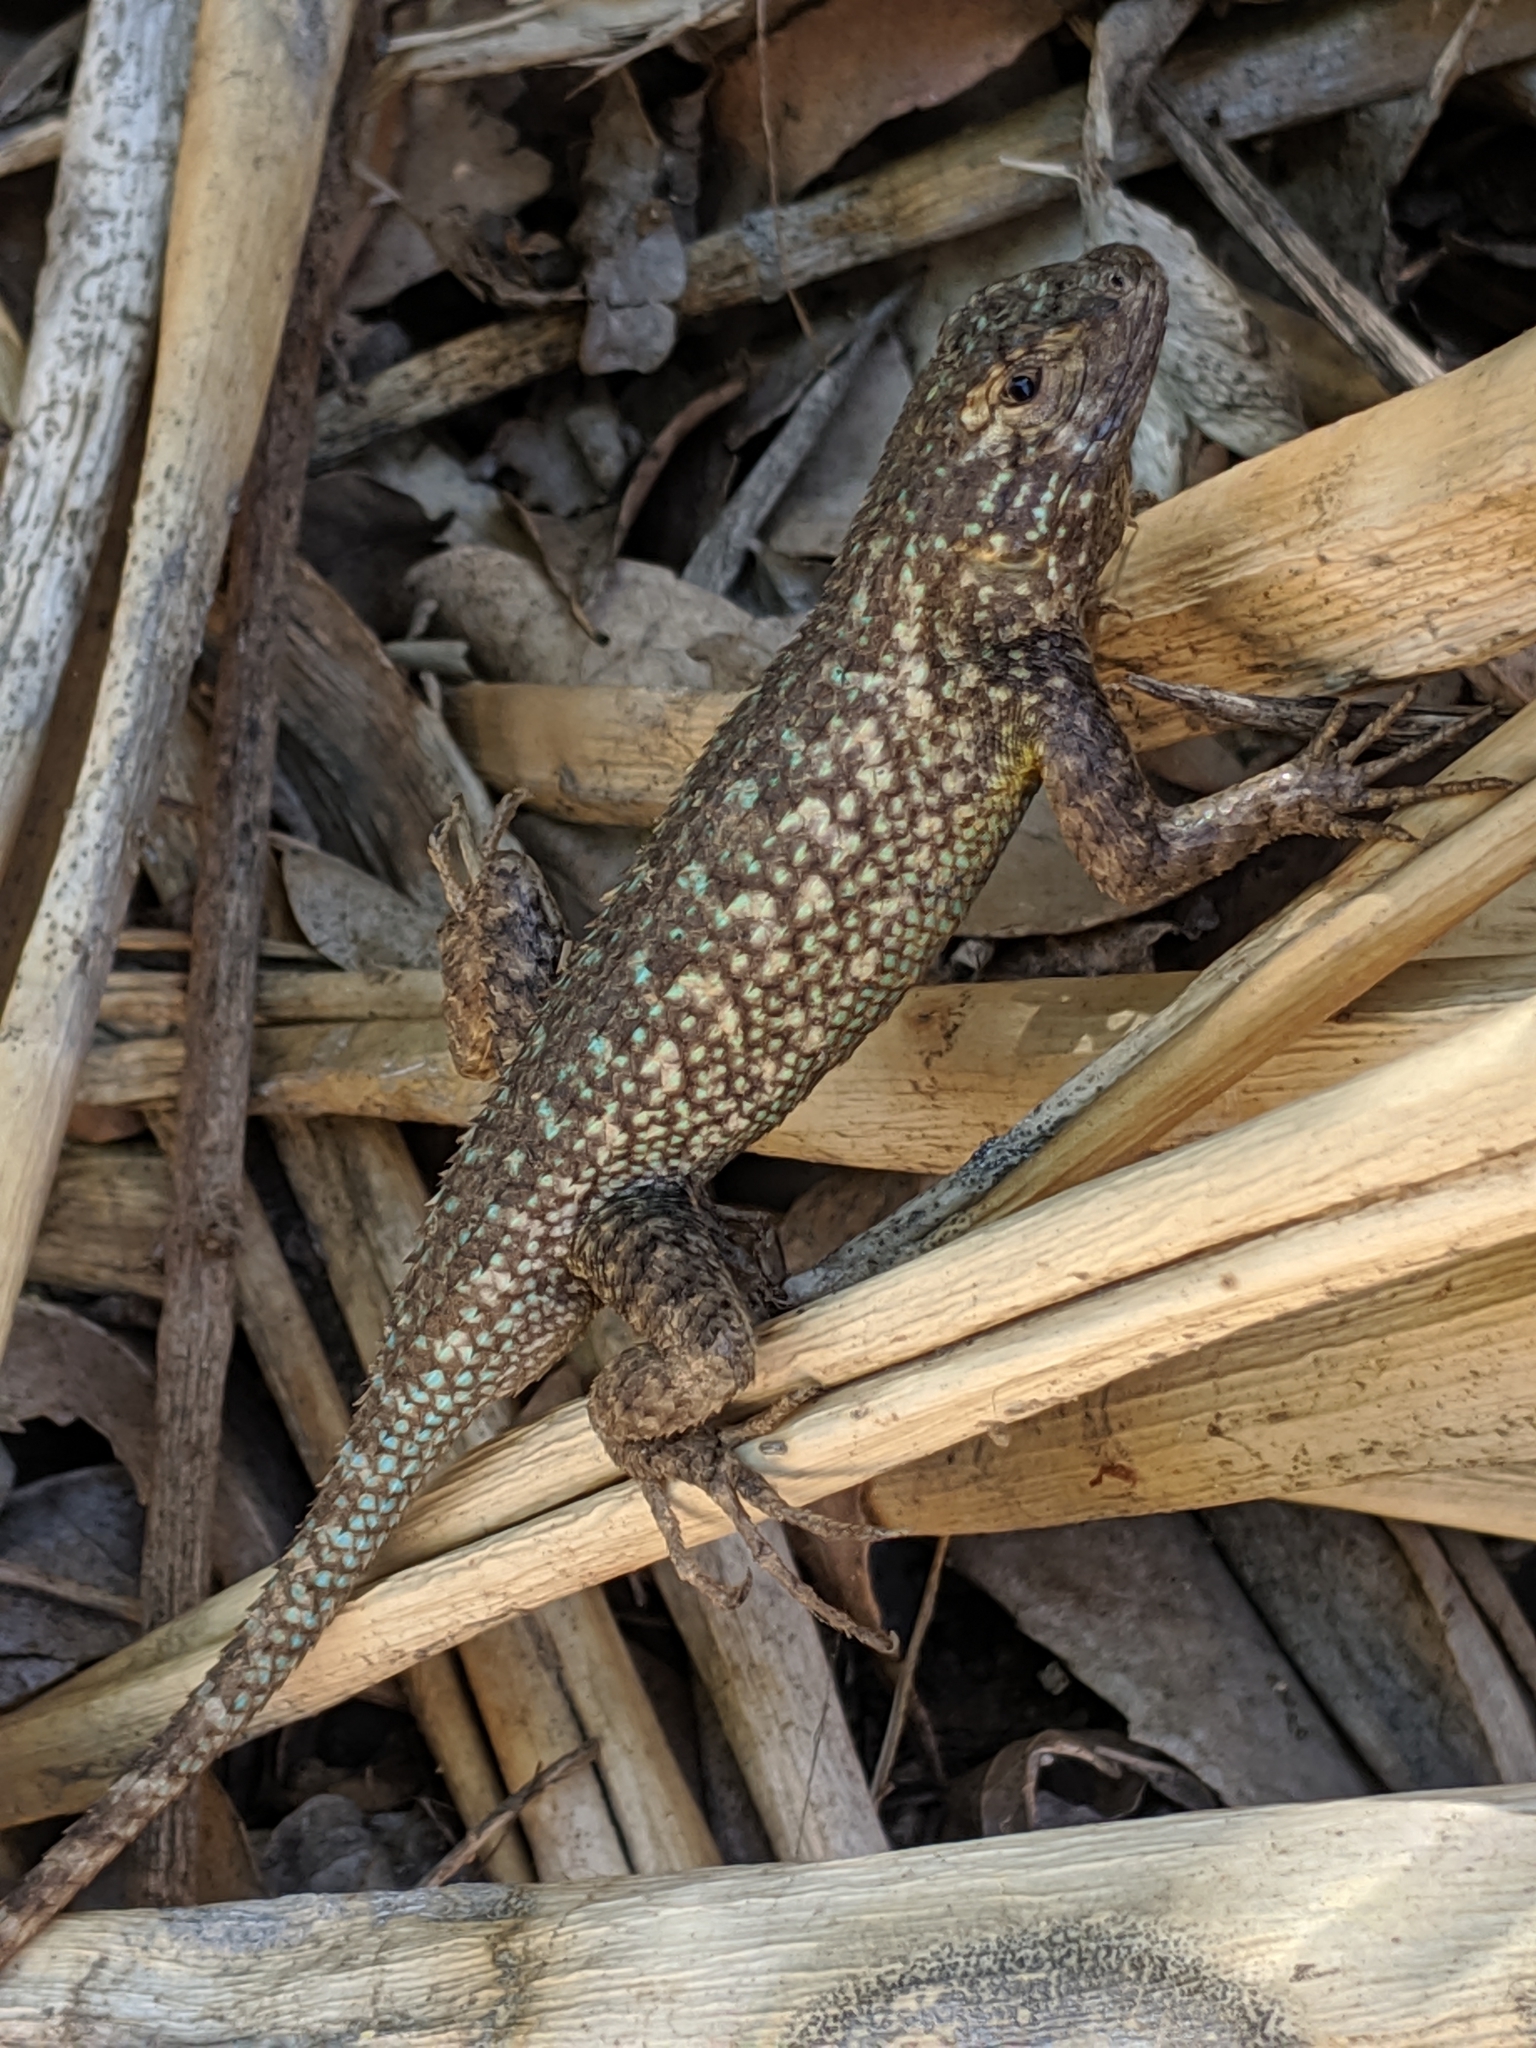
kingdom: Animalia
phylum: Chordata
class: Squamata
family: Phrynosomatidae
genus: Sceloporus
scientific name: Sceloporus occidentalis
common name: Western fence lizard
